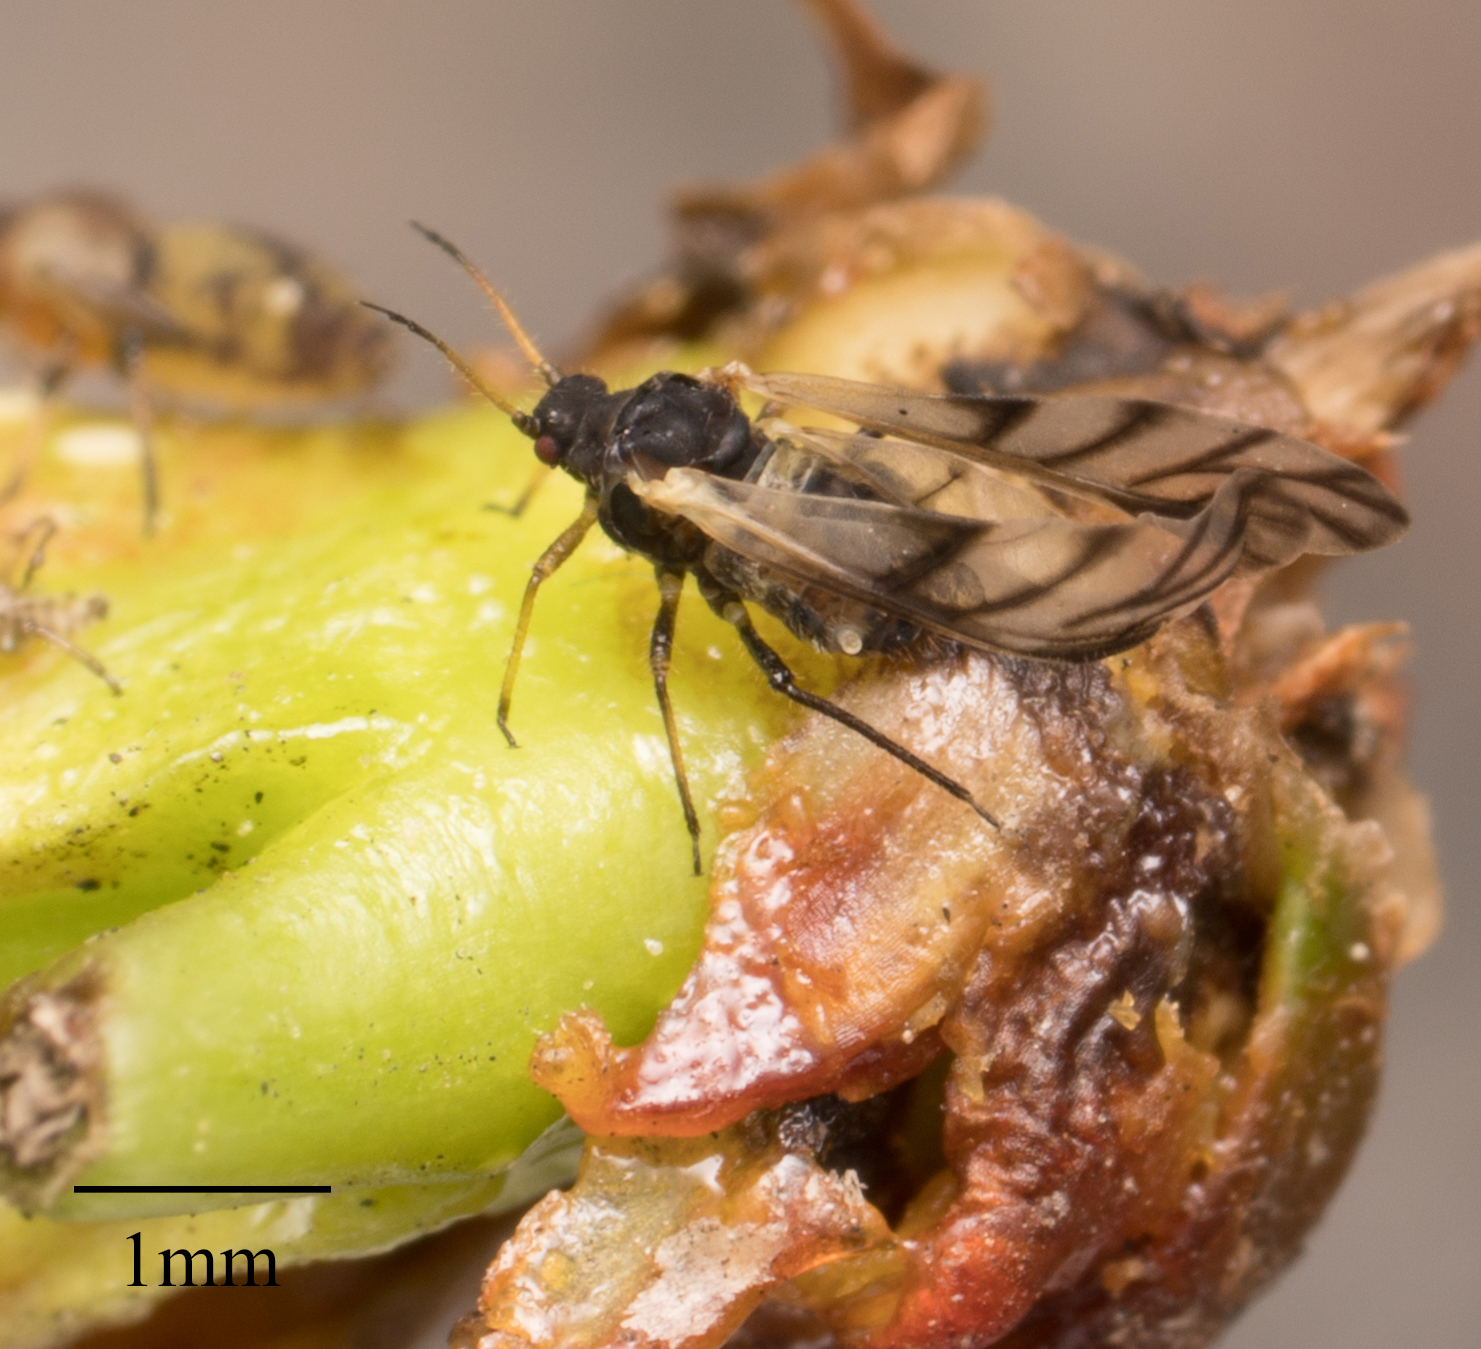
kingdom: Animalia
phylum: Arthropoda
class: Insecta
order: Hemiptera
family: Aphididae
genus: Chaitophorus
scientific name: Chaitophorus populicola
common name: Smokywinged poplar aphid
